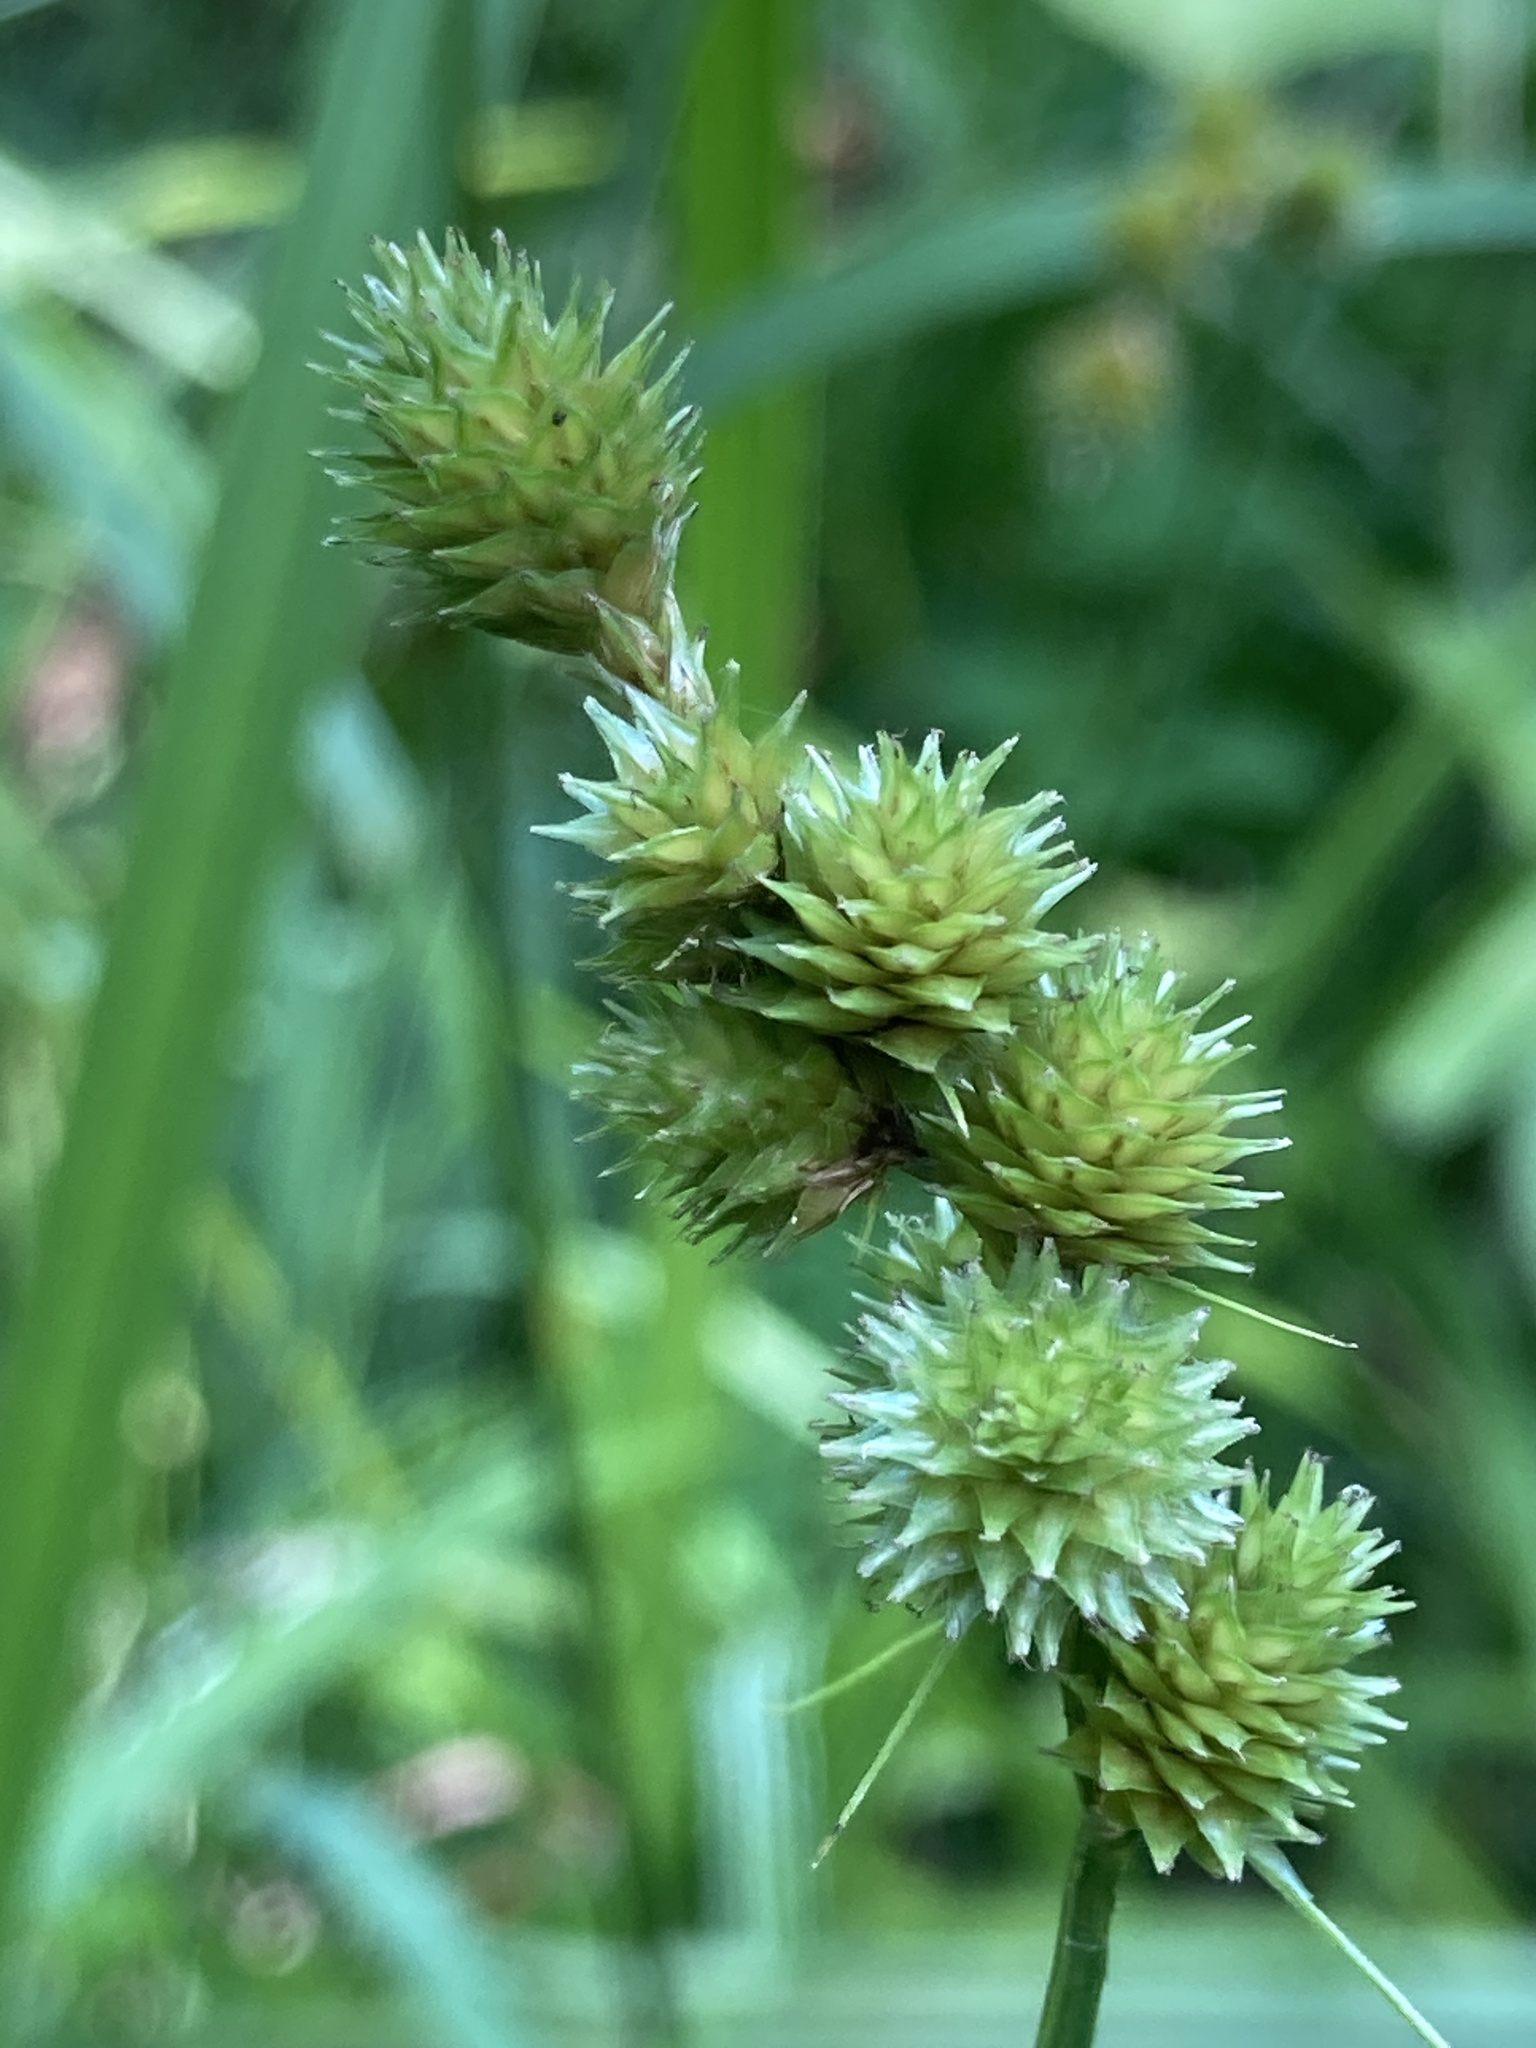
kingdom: Plantae
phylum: Tracheophyta
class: Liliopsida
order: Poales
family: Cyperaceae
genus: Carex
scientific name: Carex cristatella
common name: Crested oval sedge
